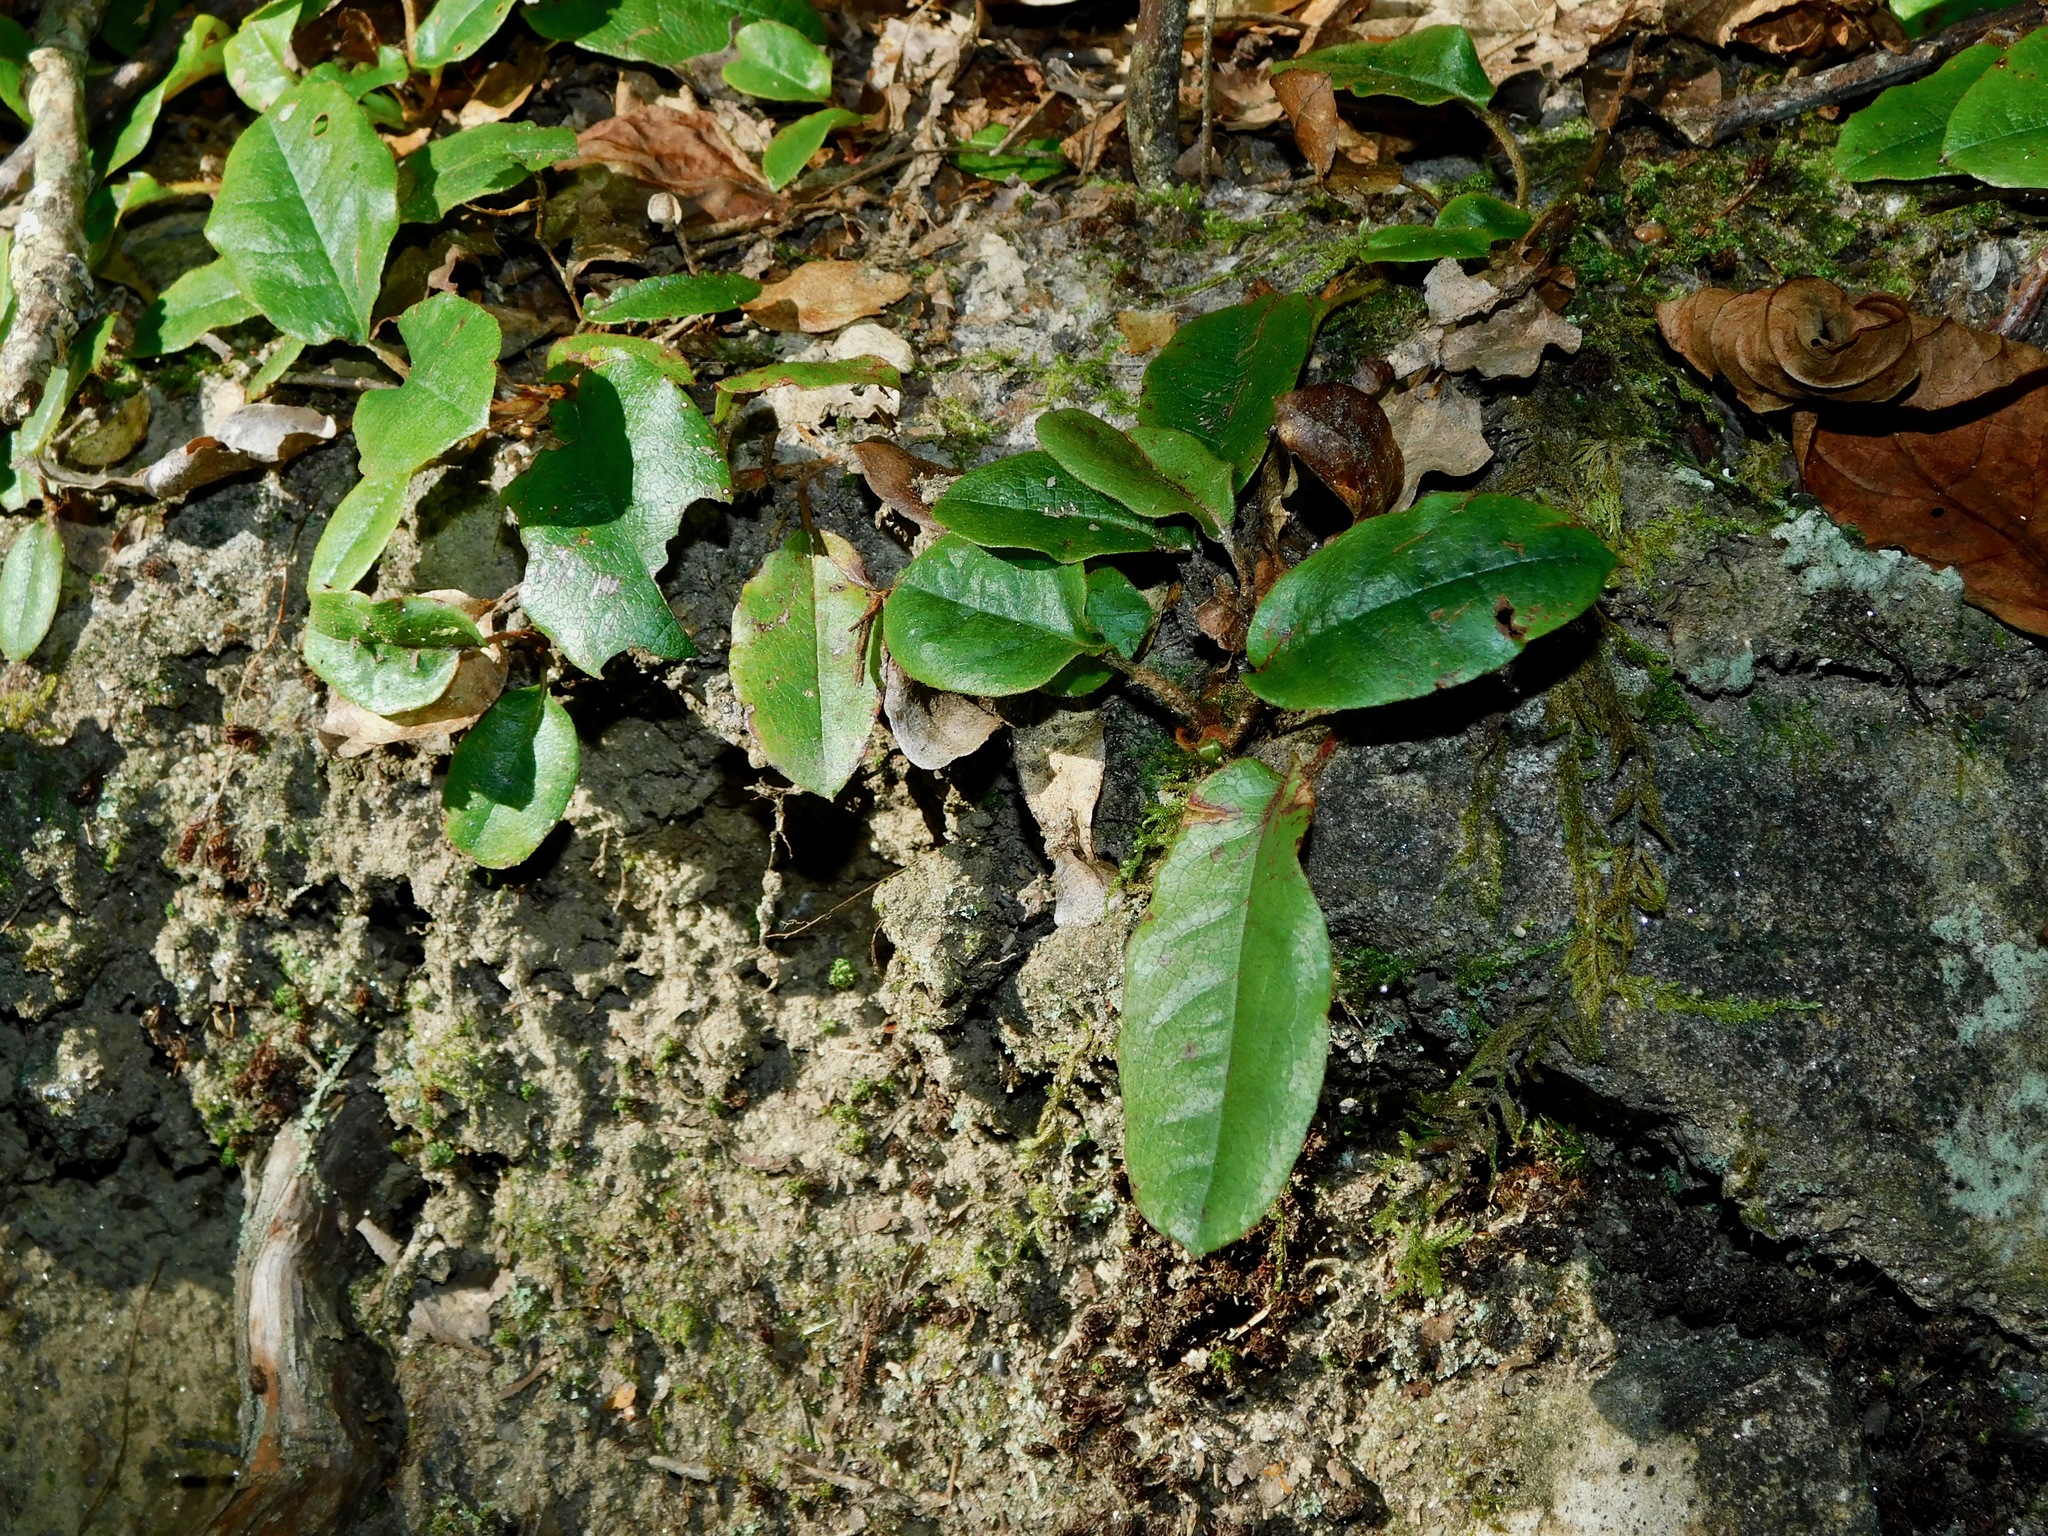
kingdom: Plantae
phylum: Tracheophyta
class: Magnoliopsida
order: Ericales
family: Ericaceae
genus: Epigaea
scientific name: Epigaea repens
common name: Gravelroot
